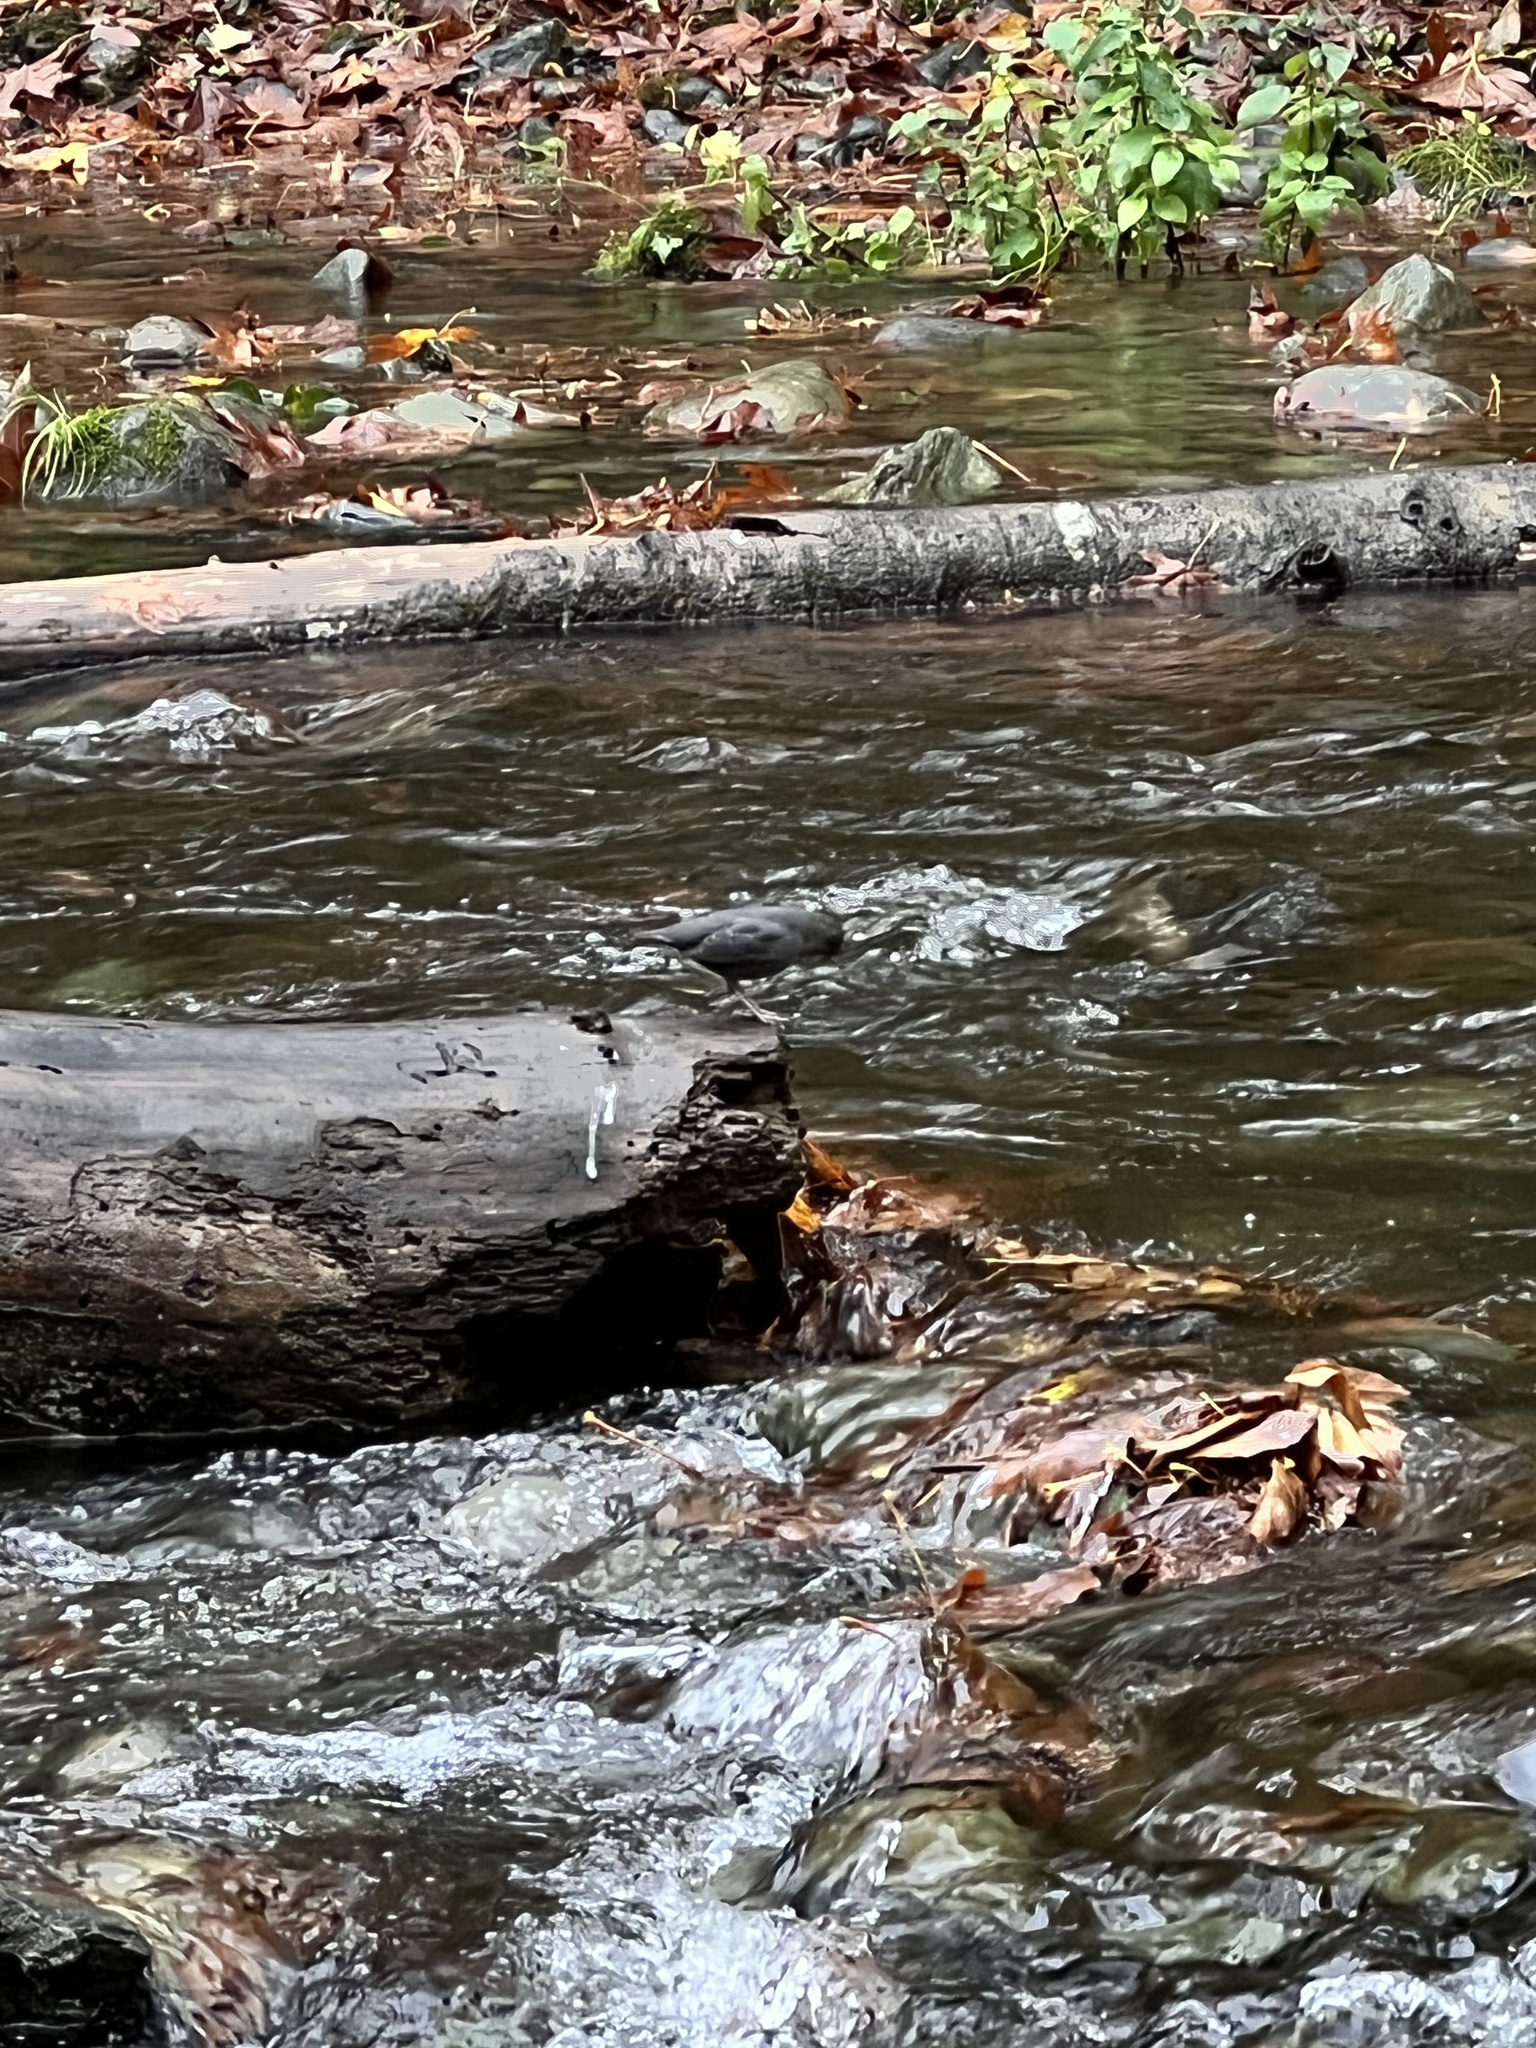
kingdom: Animalia
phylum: Chordata
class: Aves
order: Passeriformes
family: Cinclidae
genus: Cinclus
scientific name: Cinclus mexicanus
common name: American dipper
